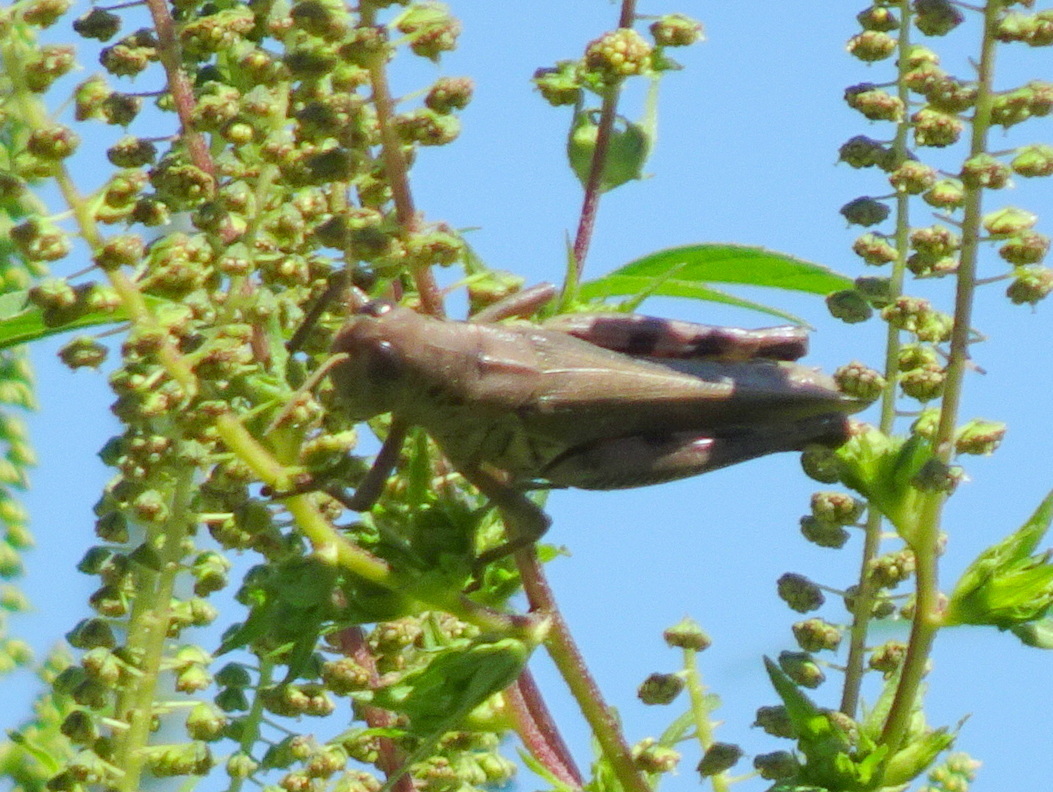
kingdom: Animalia
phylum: Arthropoda
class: Insecta
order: Orthoptera
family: Acrididae
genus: Melanoplus
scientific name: Melanoplus differentialis
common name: Differential grasshopper
